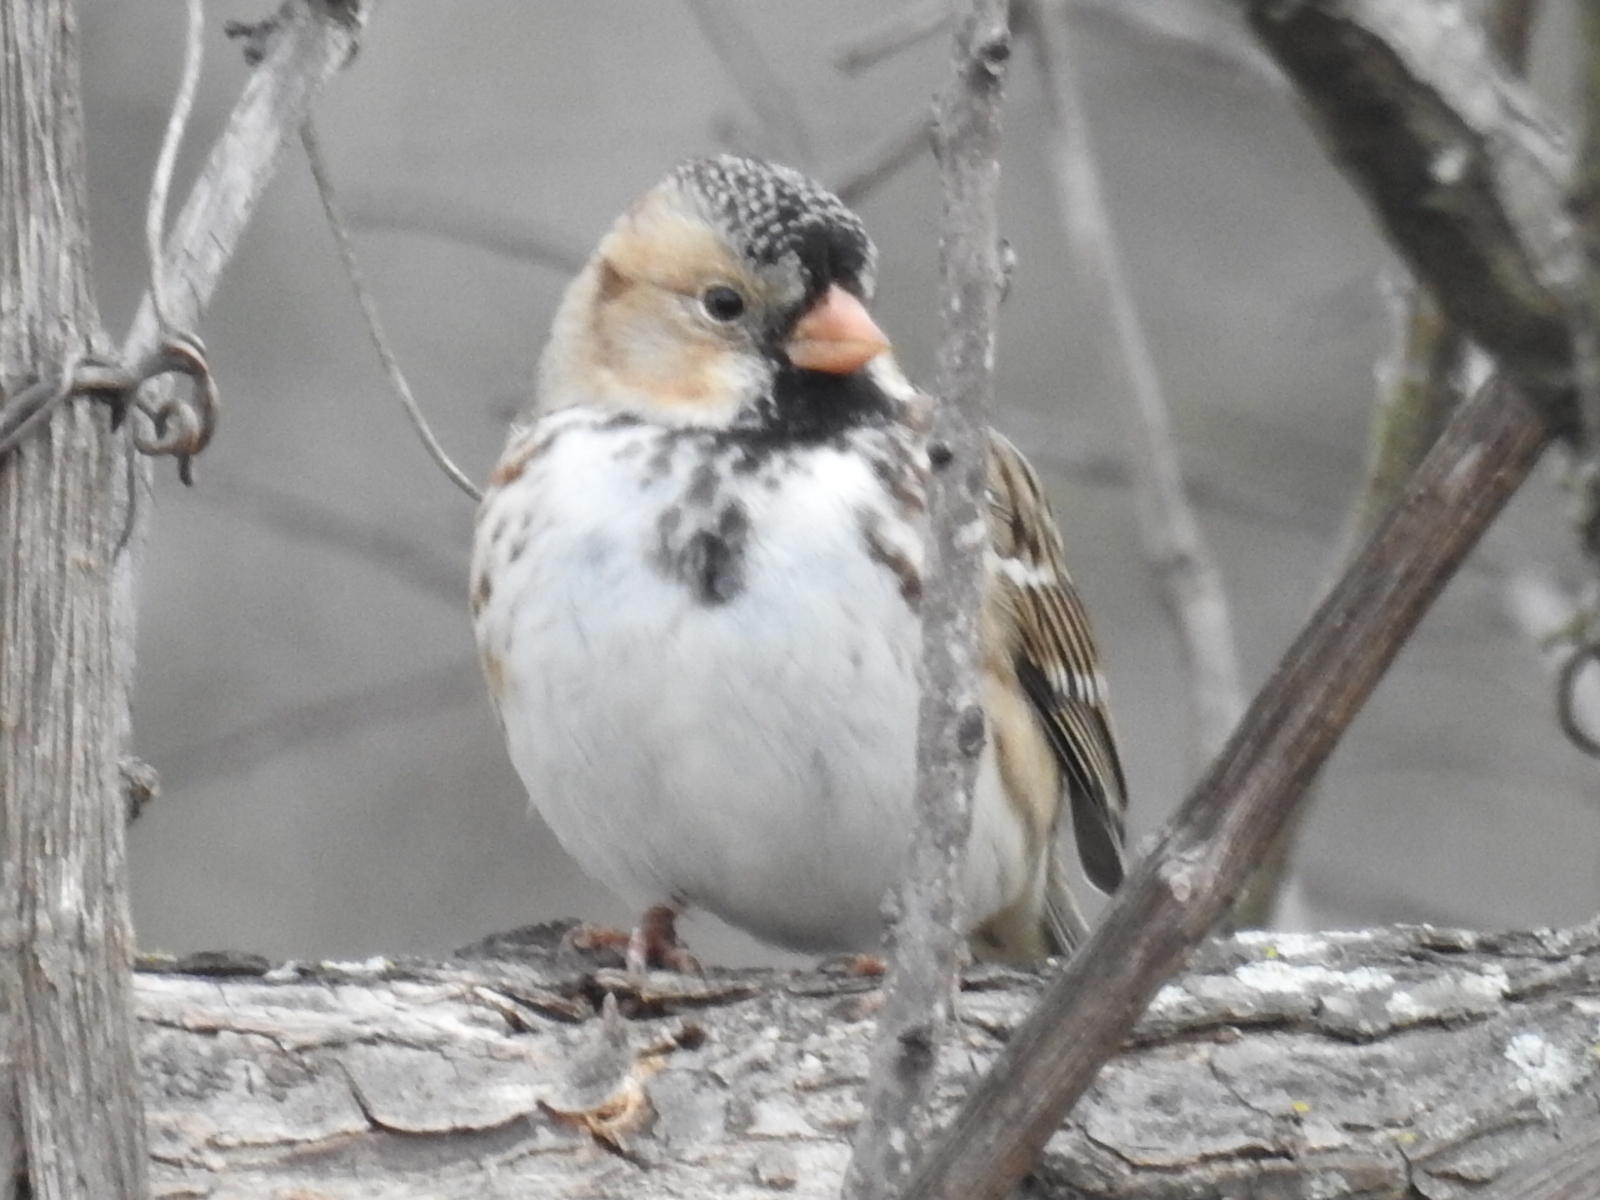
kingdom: Animalia
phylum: Chordata
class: Aves
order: Passeriformes
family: Passerellidae
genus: Zonotrichia
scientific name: Zonotrichia querula
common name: Harris's sparrow
